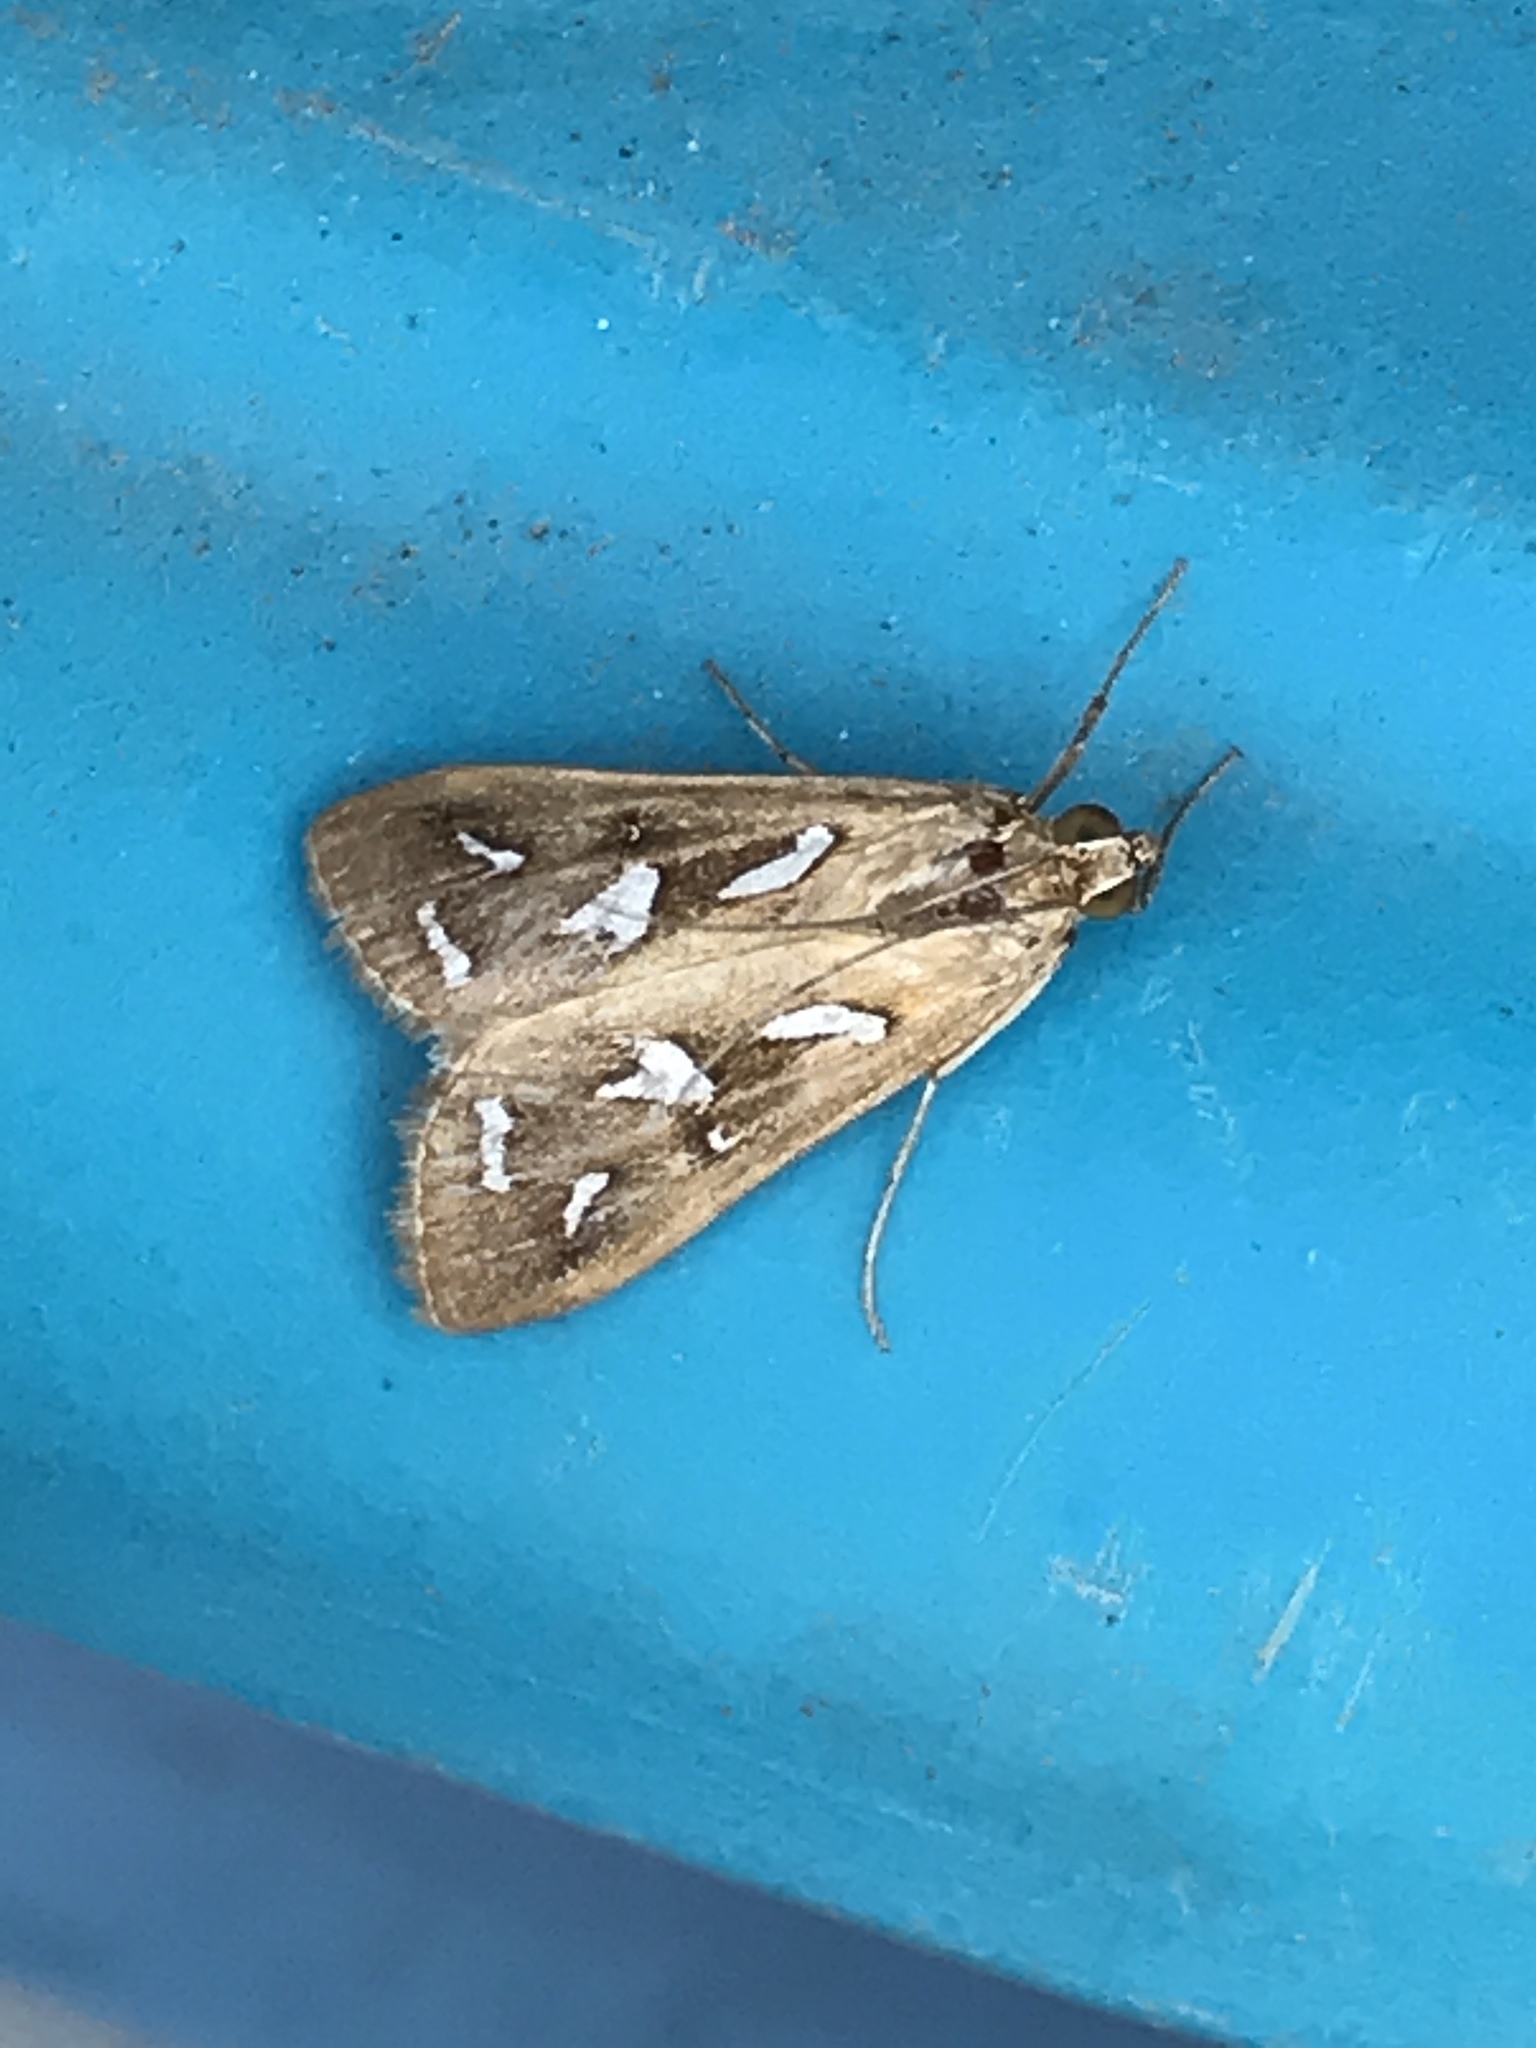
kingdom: Animalia
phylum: Arthropoda
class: Insecta
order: Lepidoptera
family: Crambidae
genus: Diastictis
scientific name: Diastictis fracturalis
